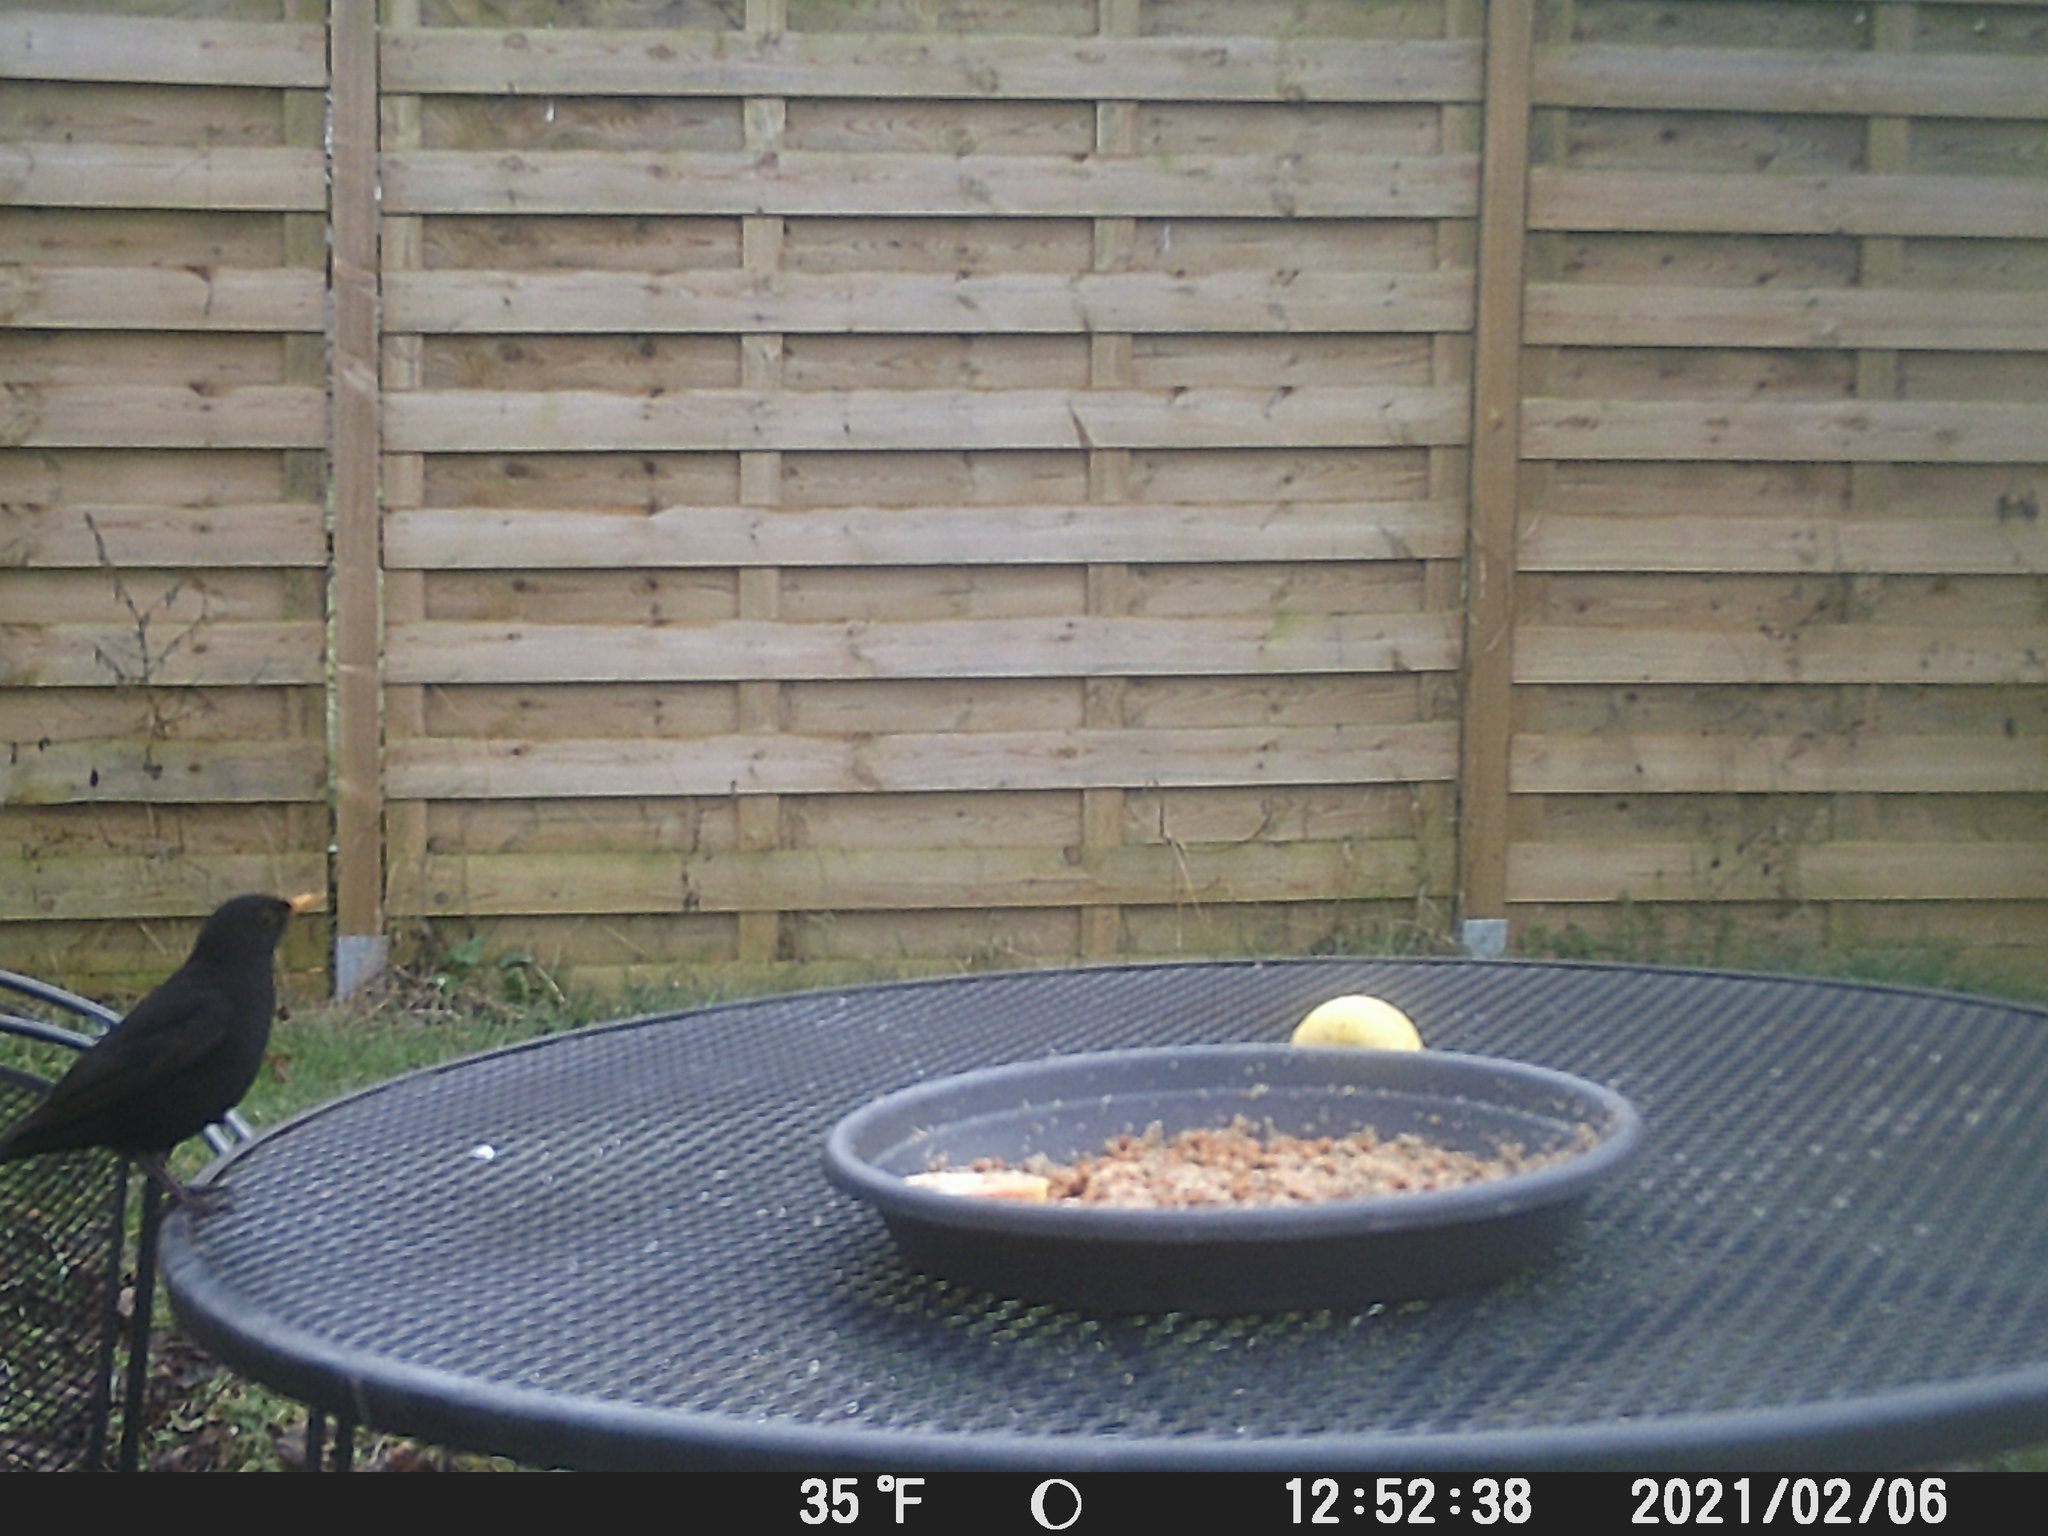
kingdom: Animalia
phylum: Chordata
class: Aves
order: Passeriformes
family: Turdidae
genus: Turdus
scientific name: Turdus merula
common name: Common blackbird
